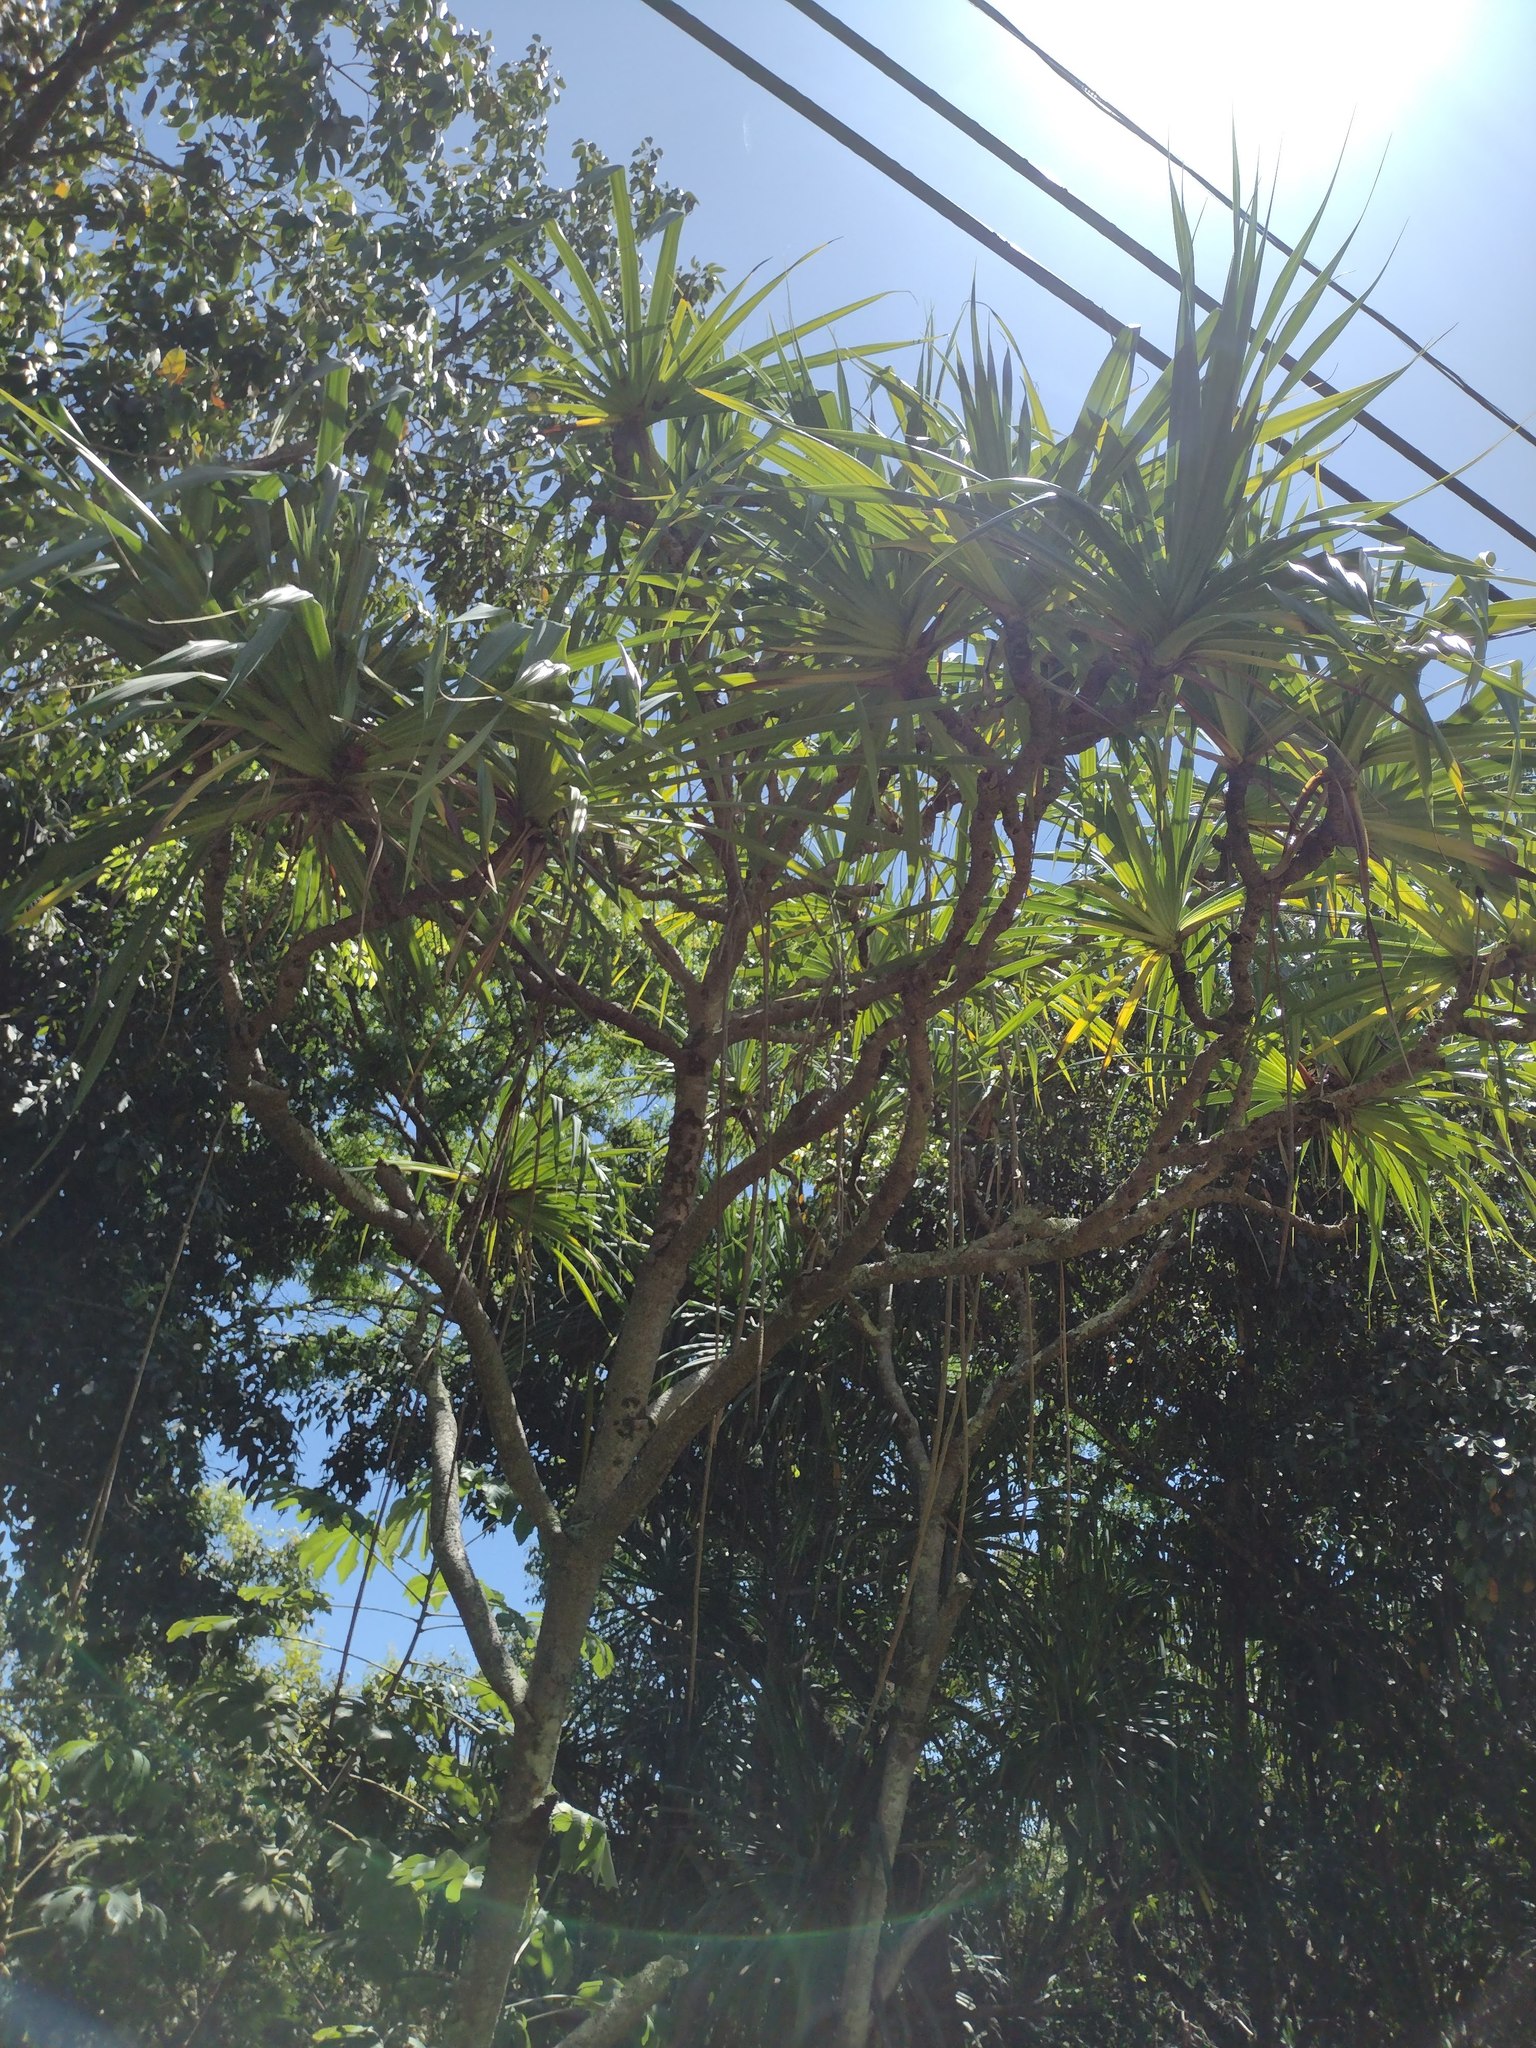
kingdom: Plantae
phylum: Tracheophyta
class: Liliopsida
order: Pandanales
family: Pandanaceae
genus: Pandanus
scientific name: Pandanus tectorius
